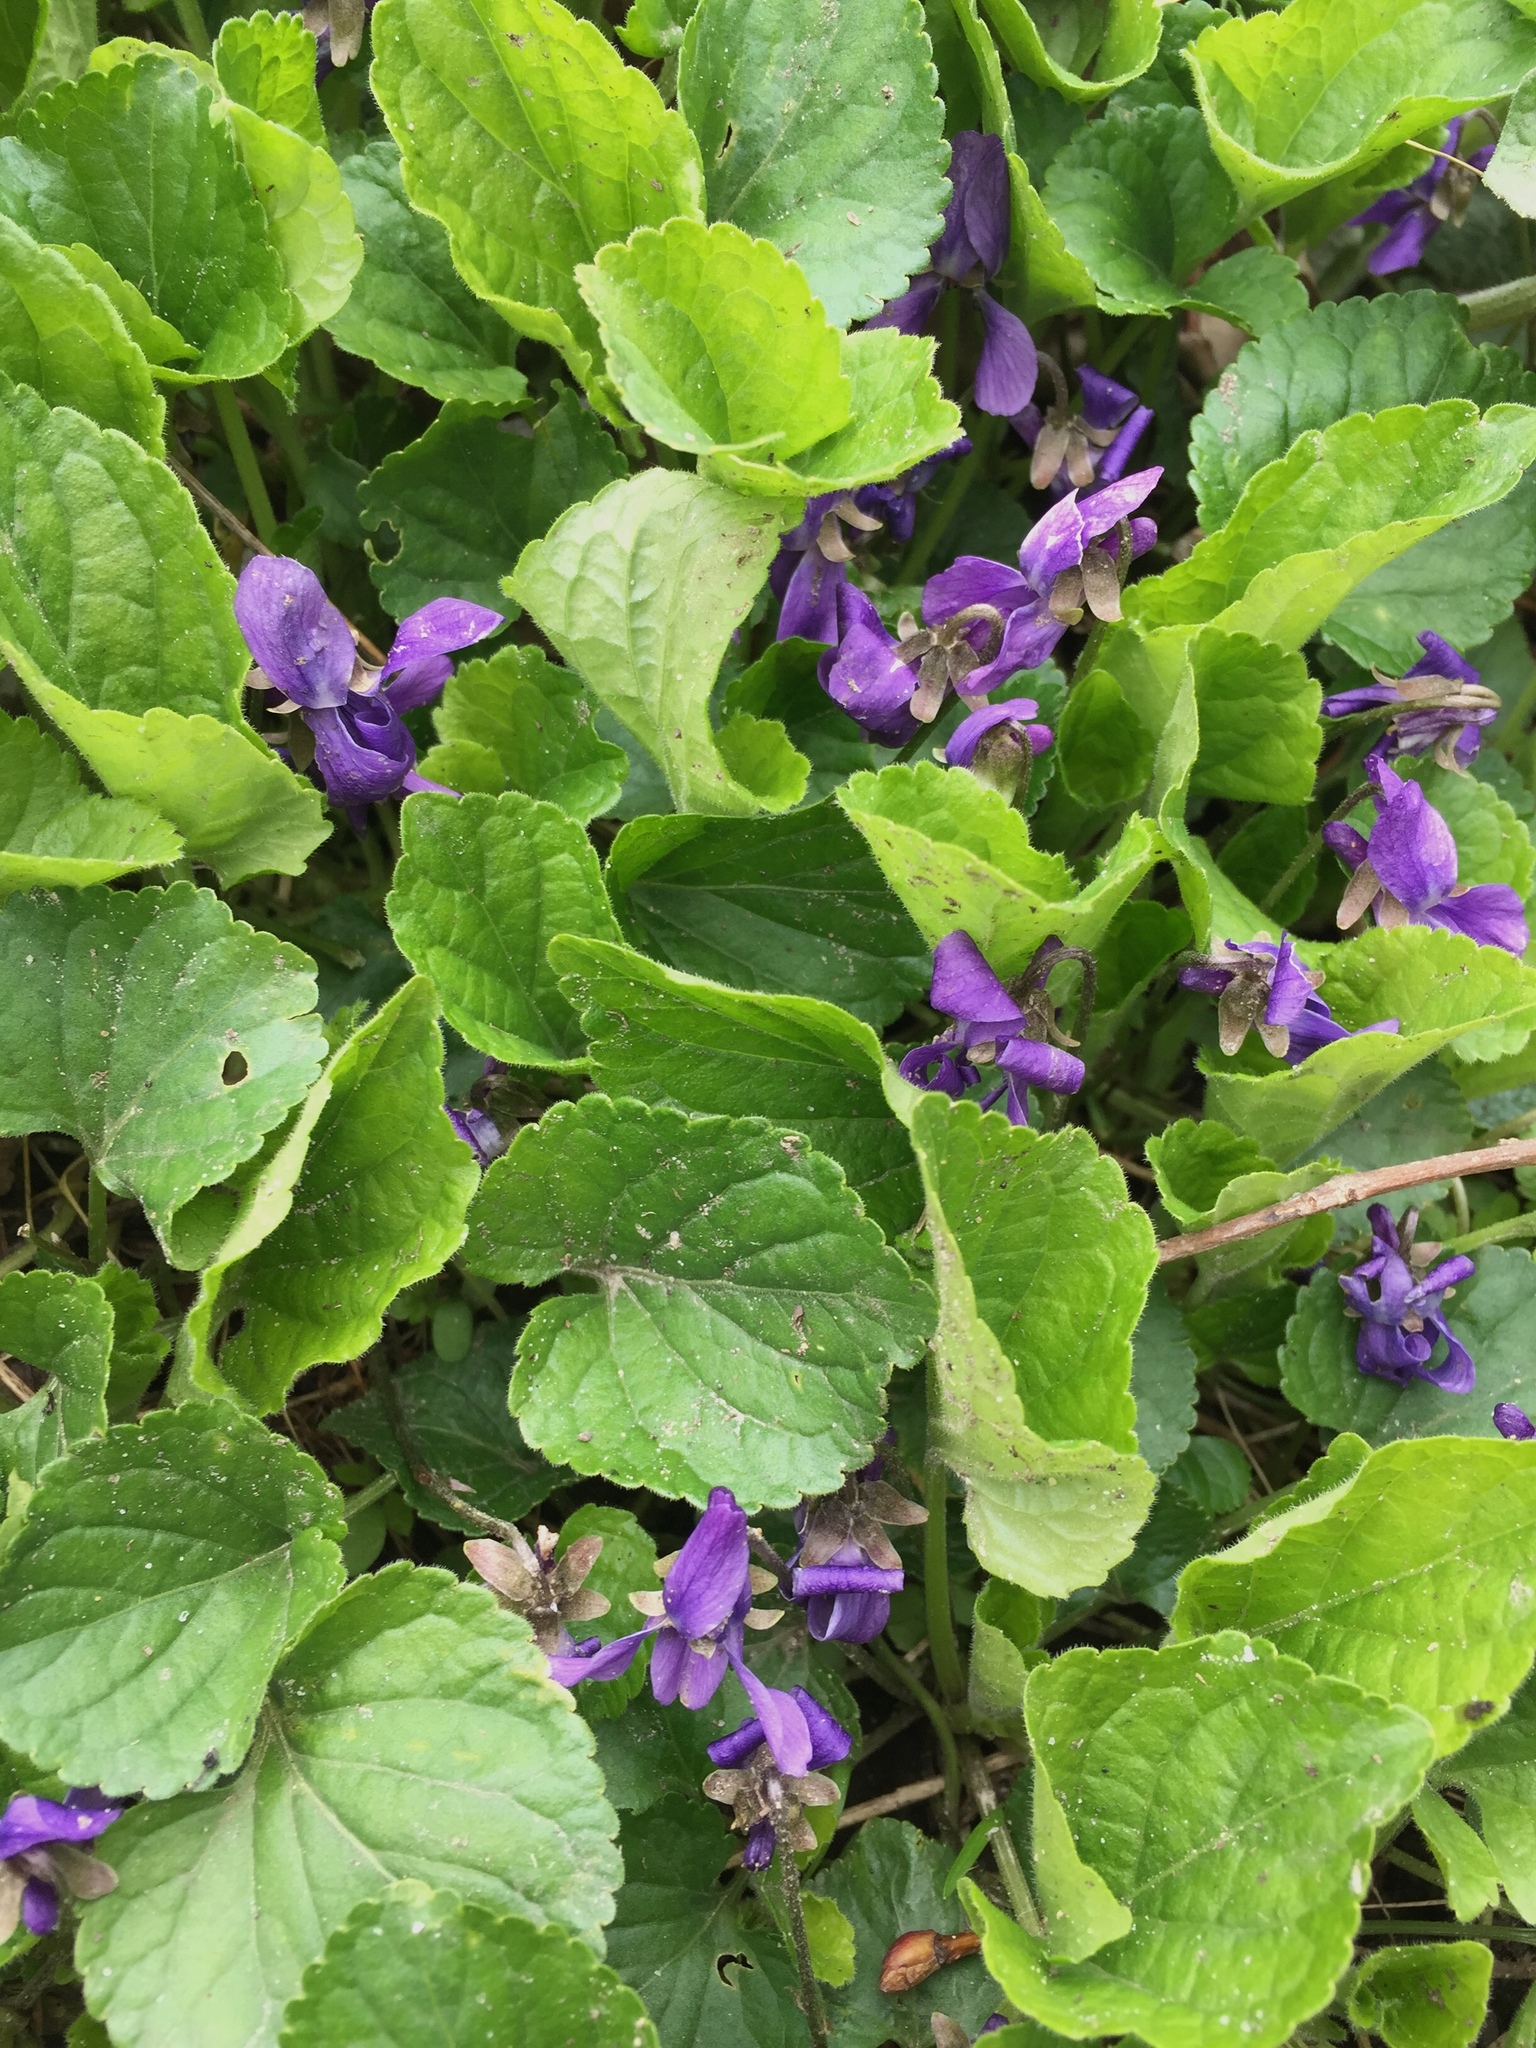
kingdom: Plantae
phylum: Tracheophyta
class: Magnoliopsida
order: Malpighiales
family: Violaceae
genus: Viola
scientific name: Viola odorata
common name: Sweet violet
